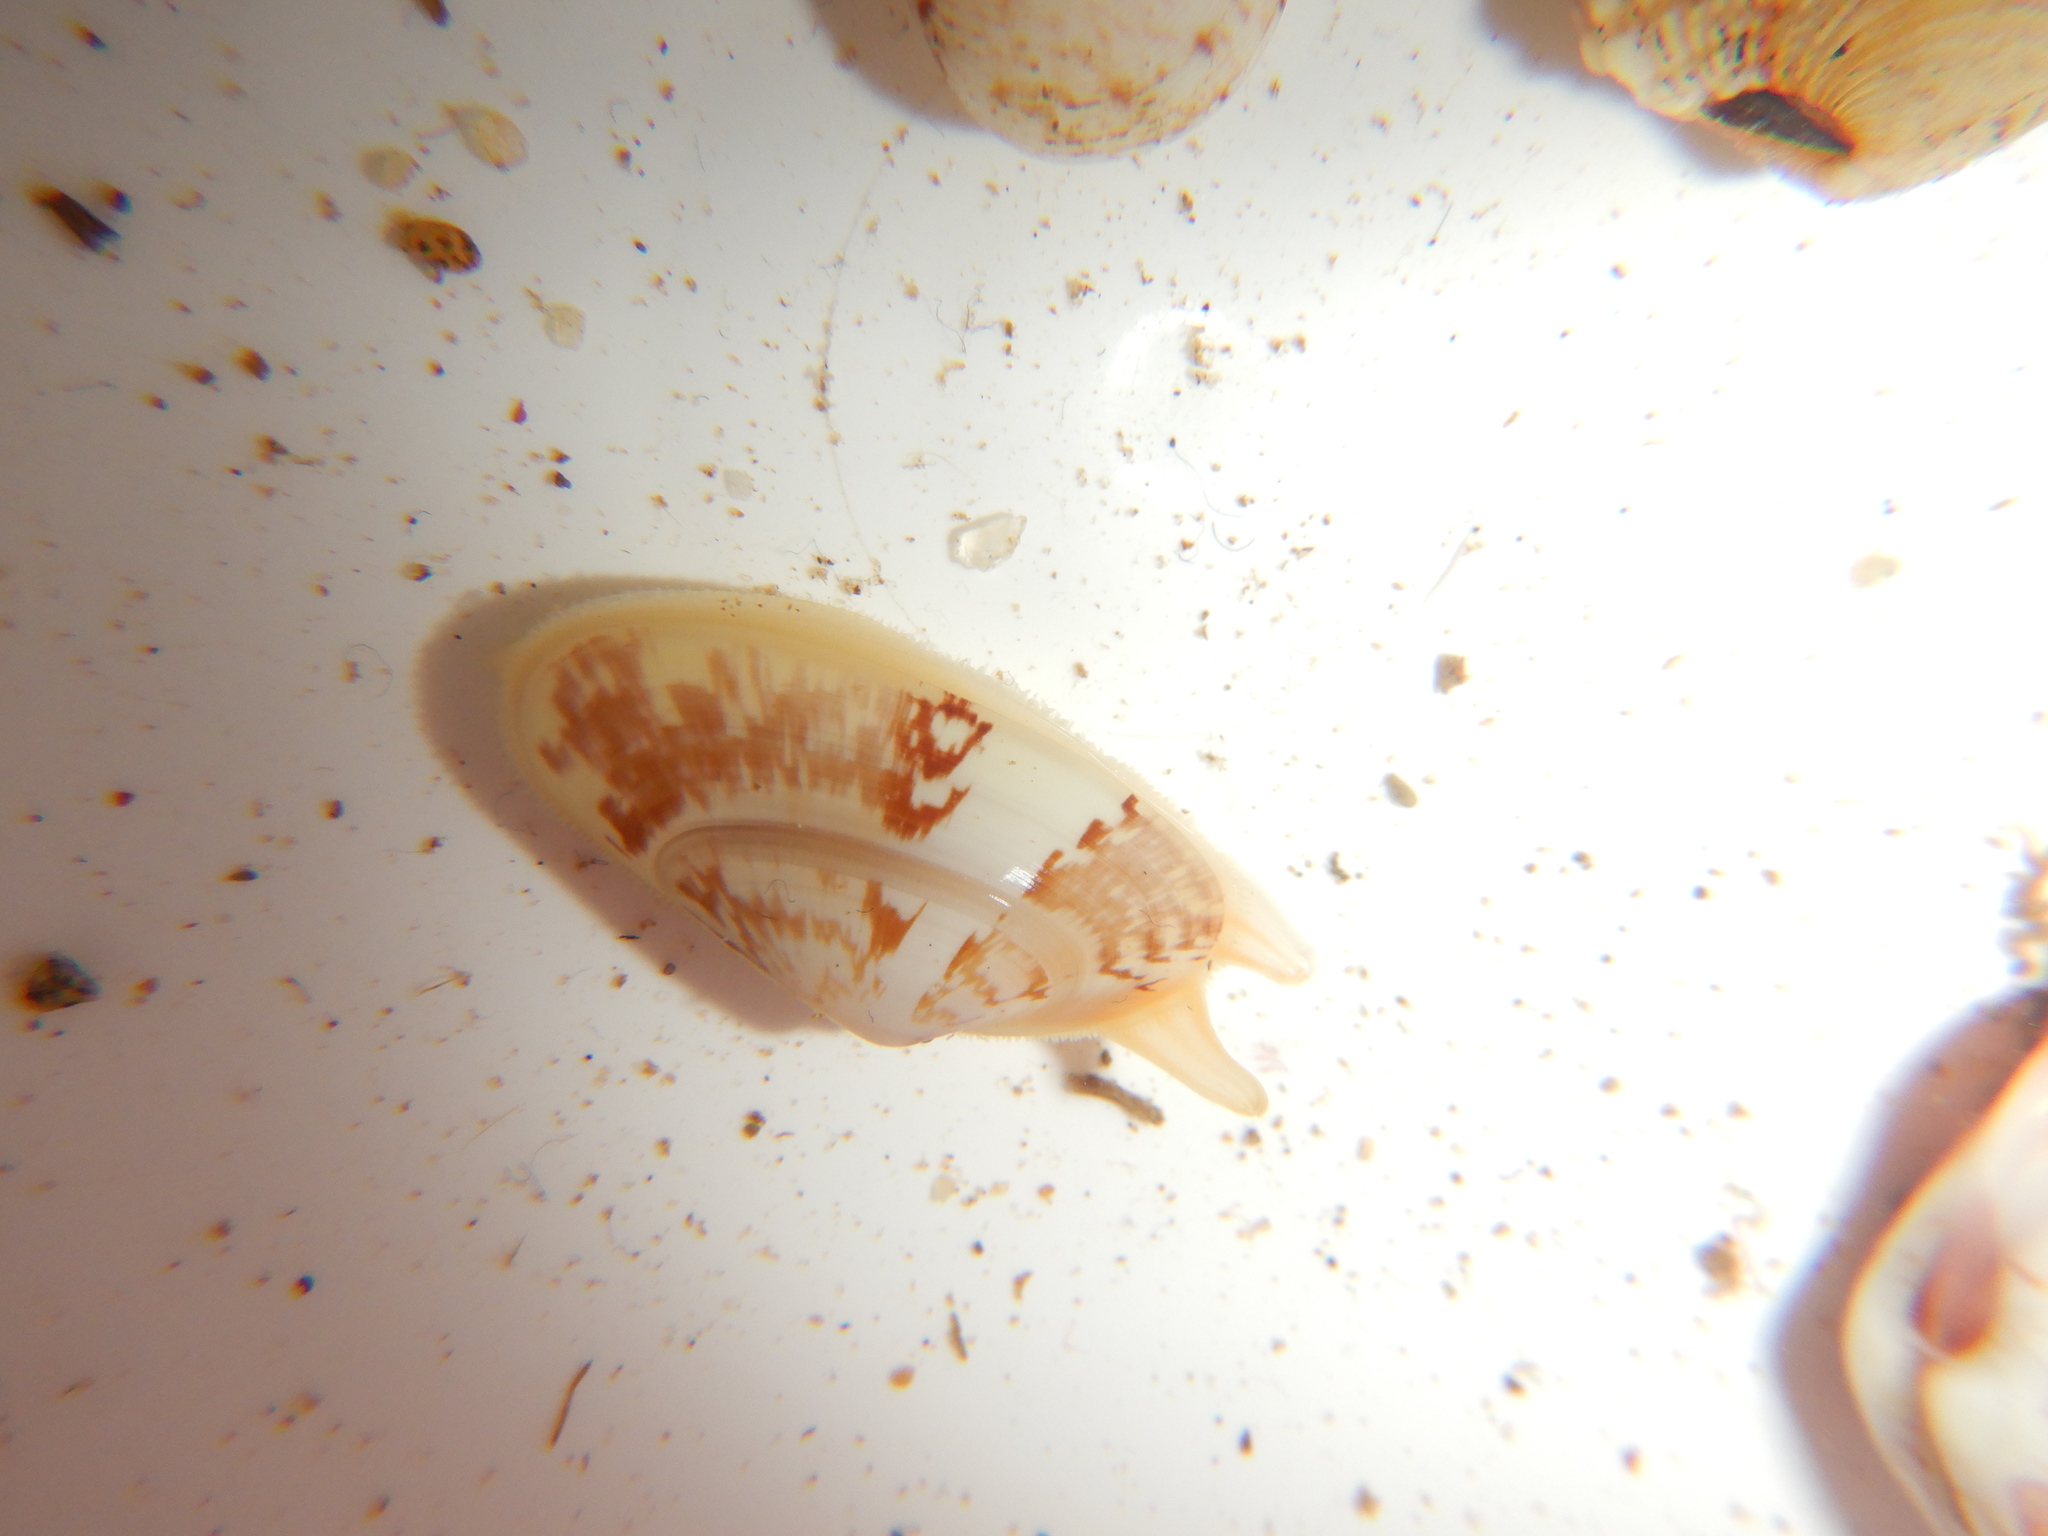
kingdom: Animalia
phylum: Mollusca
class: Bivalvia
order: Cardiida
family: Donacidae
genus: Donax
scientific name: Donax variegatus
